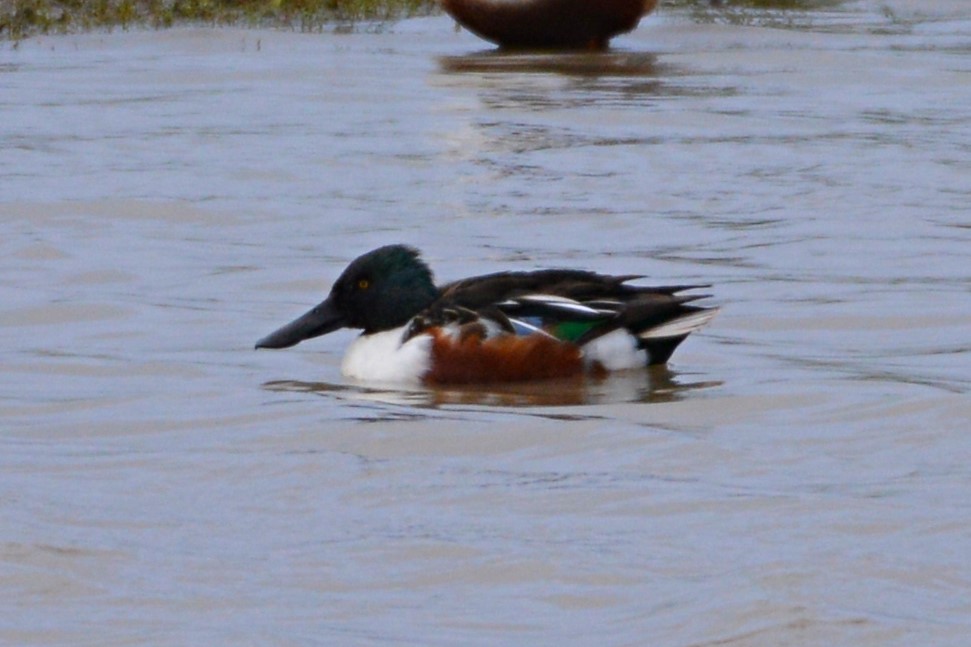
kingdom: Animalia
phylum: Chordata
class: Aves
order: Anseriformes
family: Anatidae
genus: Spatula
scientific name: Spatula clypeata
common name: Northern shoveler
